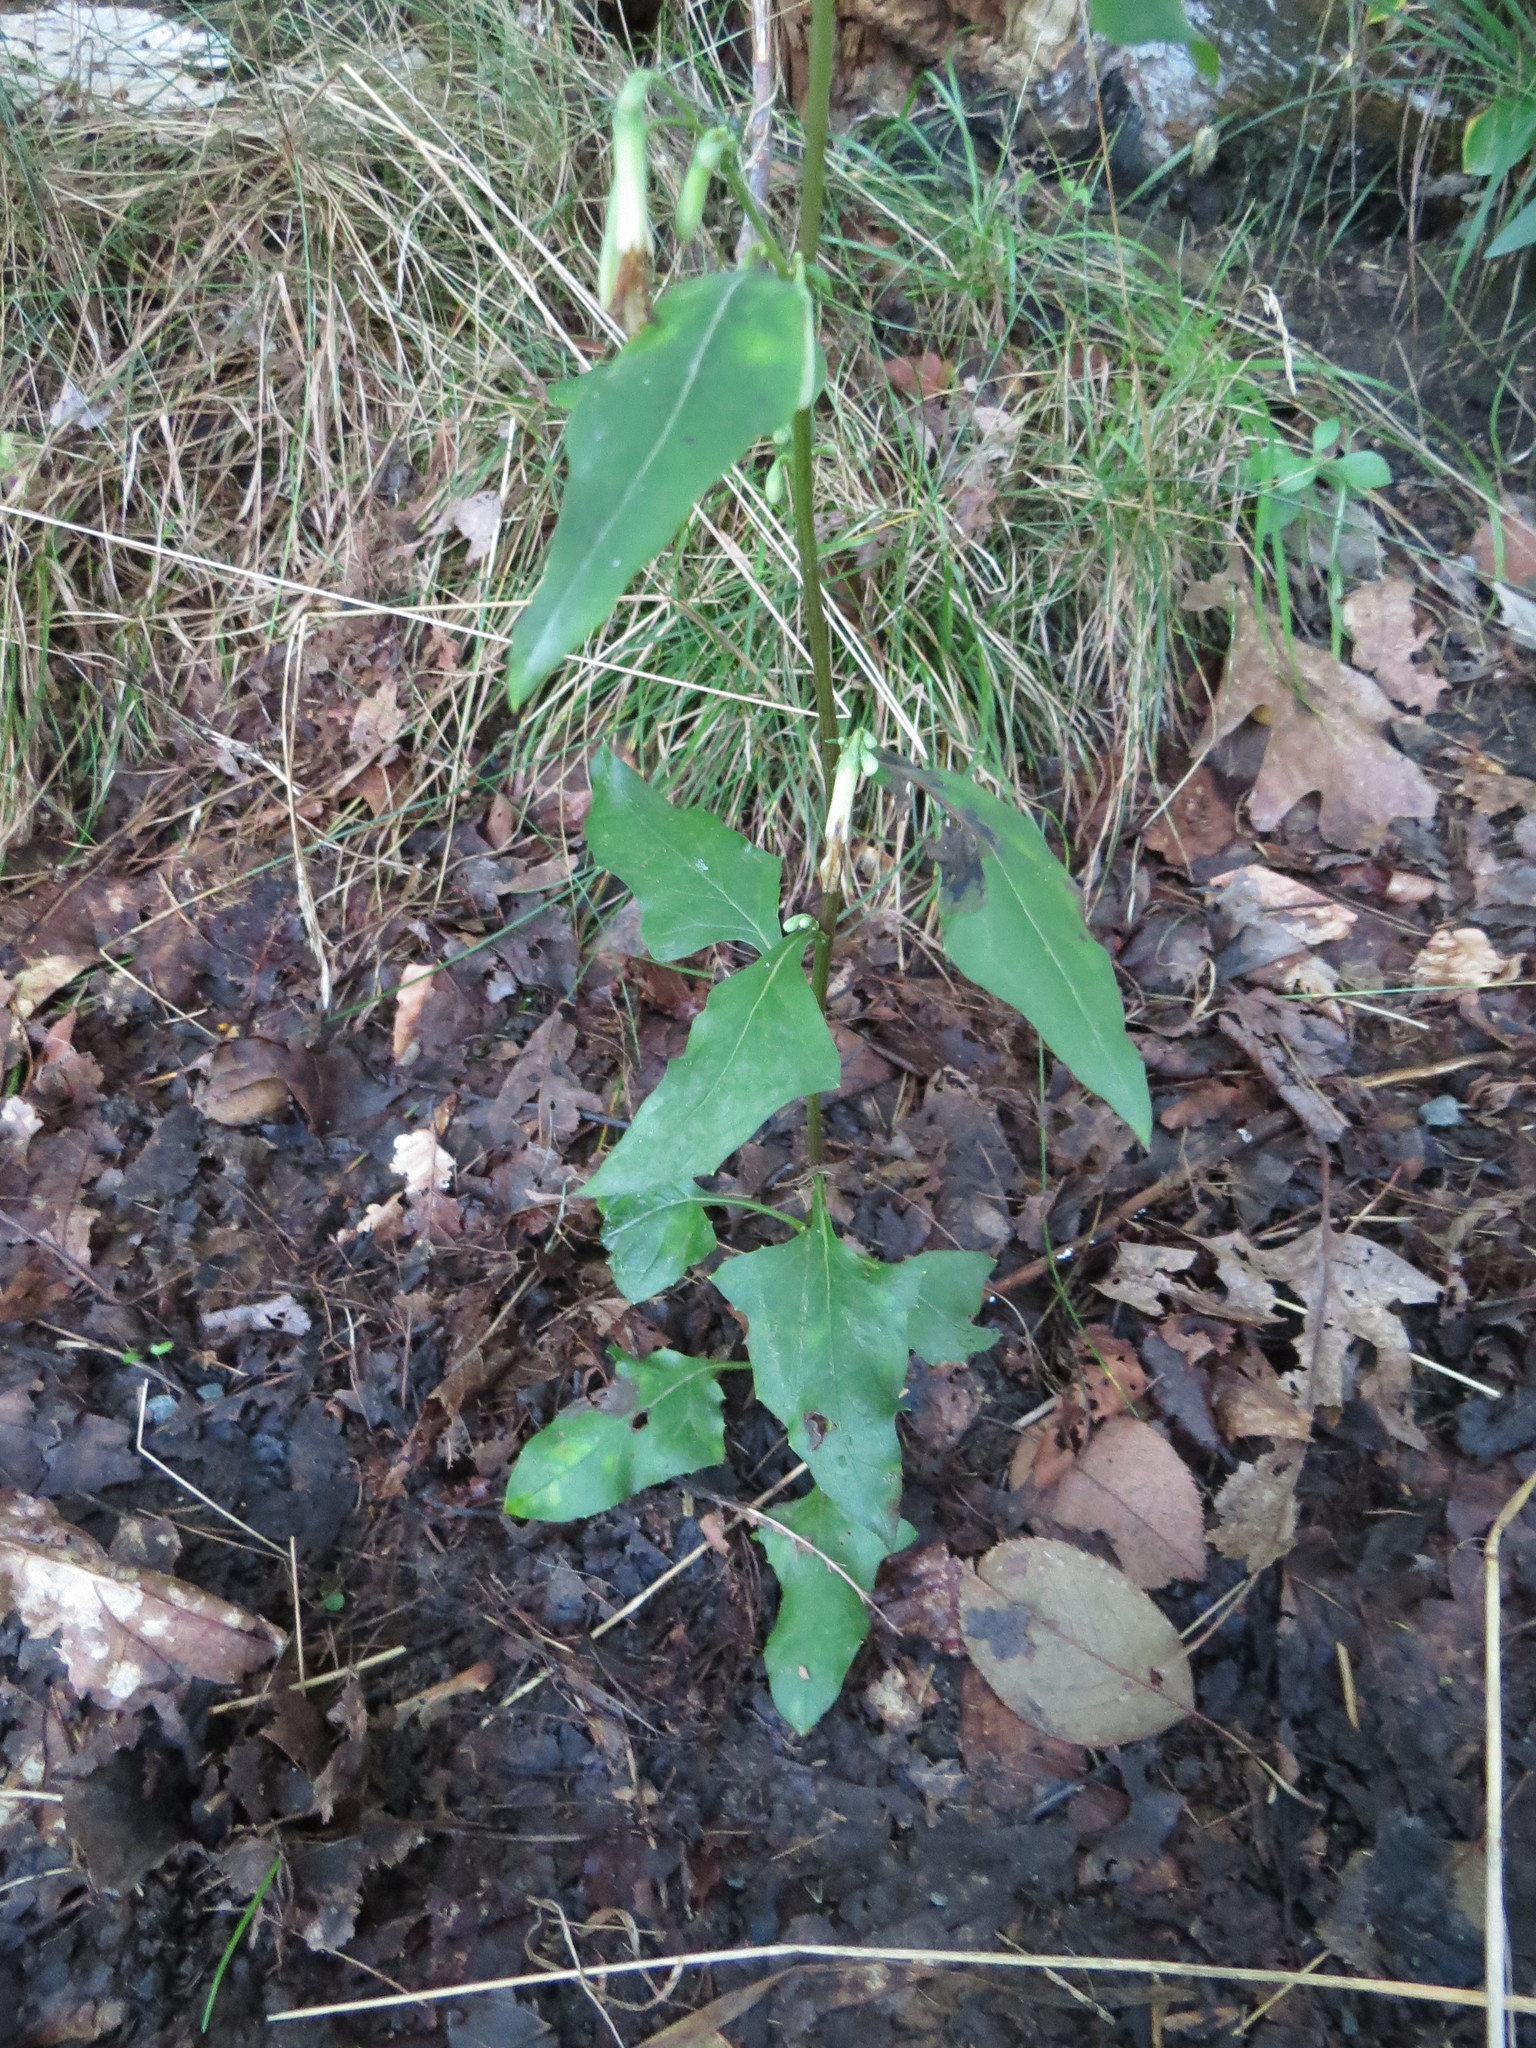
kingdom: Plantae
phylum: Tracheophyta
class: Magnoliopsida
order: Asterales
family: Asteraceae
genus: Nabalus
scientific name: Nabalus trifoliolatus
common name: Gall-of-the-earth
